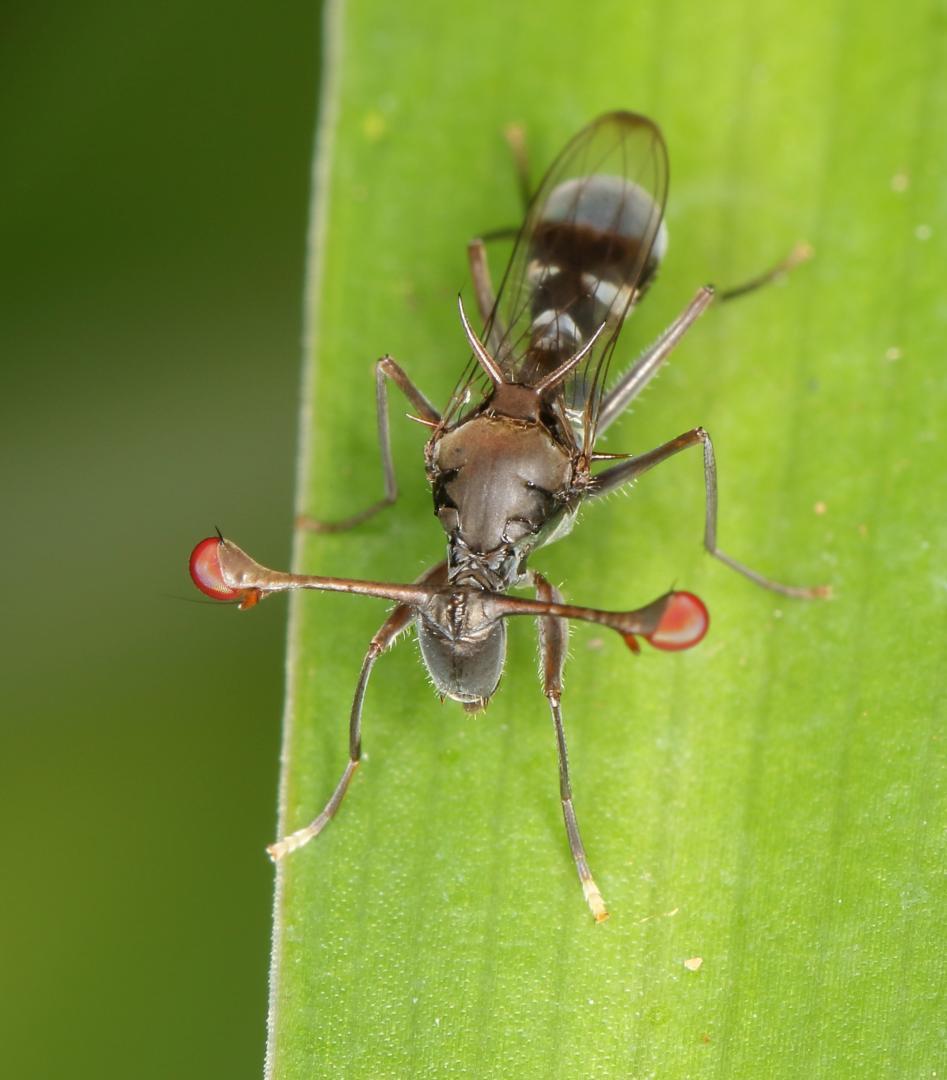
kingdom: Animalia
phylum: Arthropoda
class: Insecta
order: Diptera
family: Diopsidae
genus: Chaetodiopsis
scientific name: Chaetodiopsis
